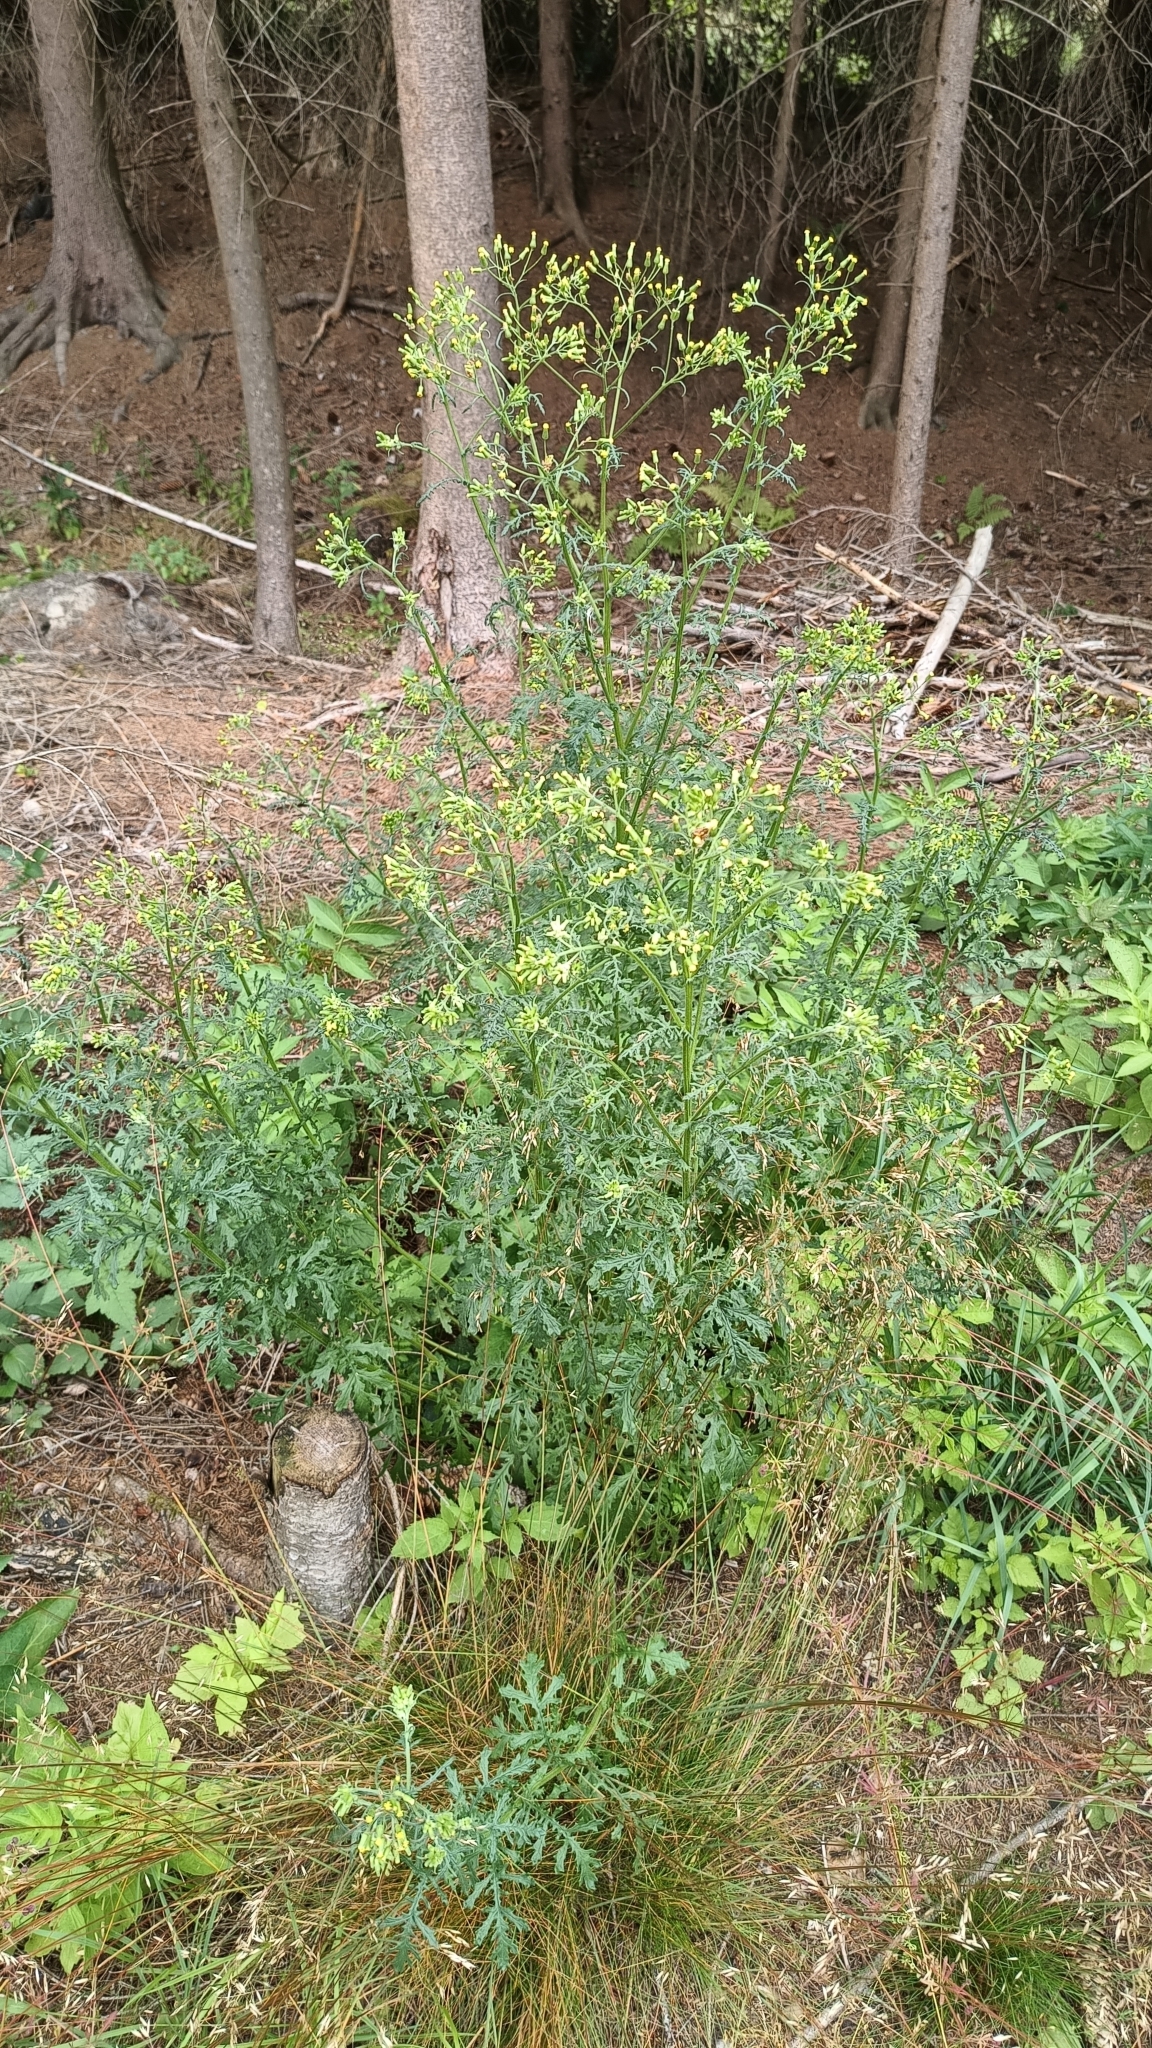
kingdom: Plantae
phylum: Tracheophyta
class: Magnoliopsida
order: Asterales
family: Asteraceae
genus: Senecio
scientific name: Senecio sylvaticus
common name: Woodland ragwort
